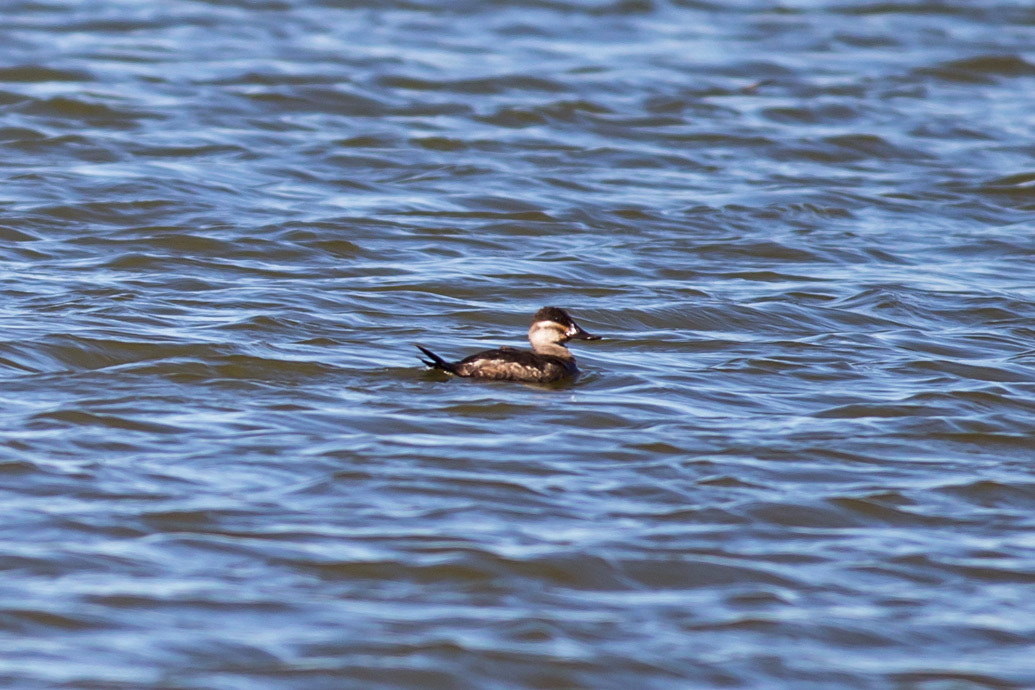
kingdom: Animalia
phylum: Chordata
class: Aves
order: Anseriformes
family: Anatidae
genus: Oxyura
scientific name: Oxyura jamaicensis
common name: Ruddy duck
